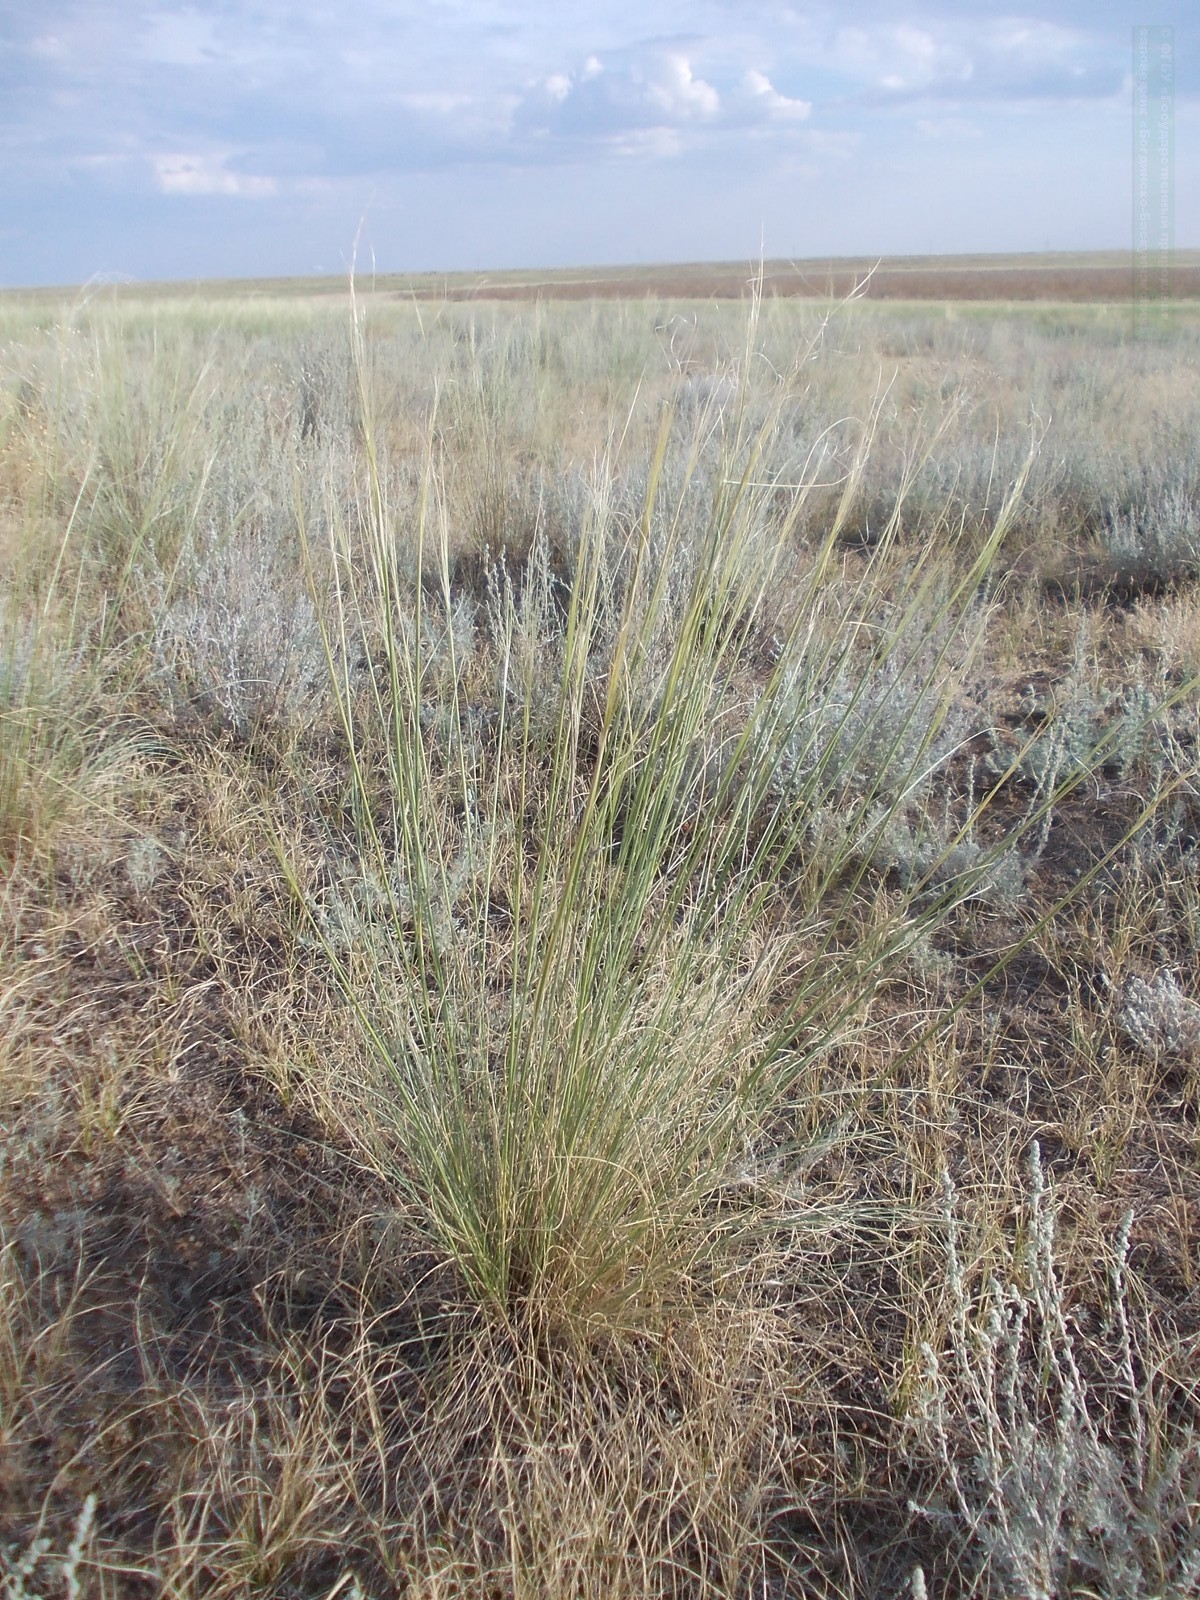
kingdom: Plantae
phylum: Tracheophyta
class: Liliopsida
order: Poales
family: Poaceae
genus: Stipa
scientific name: Stipa sareptana
